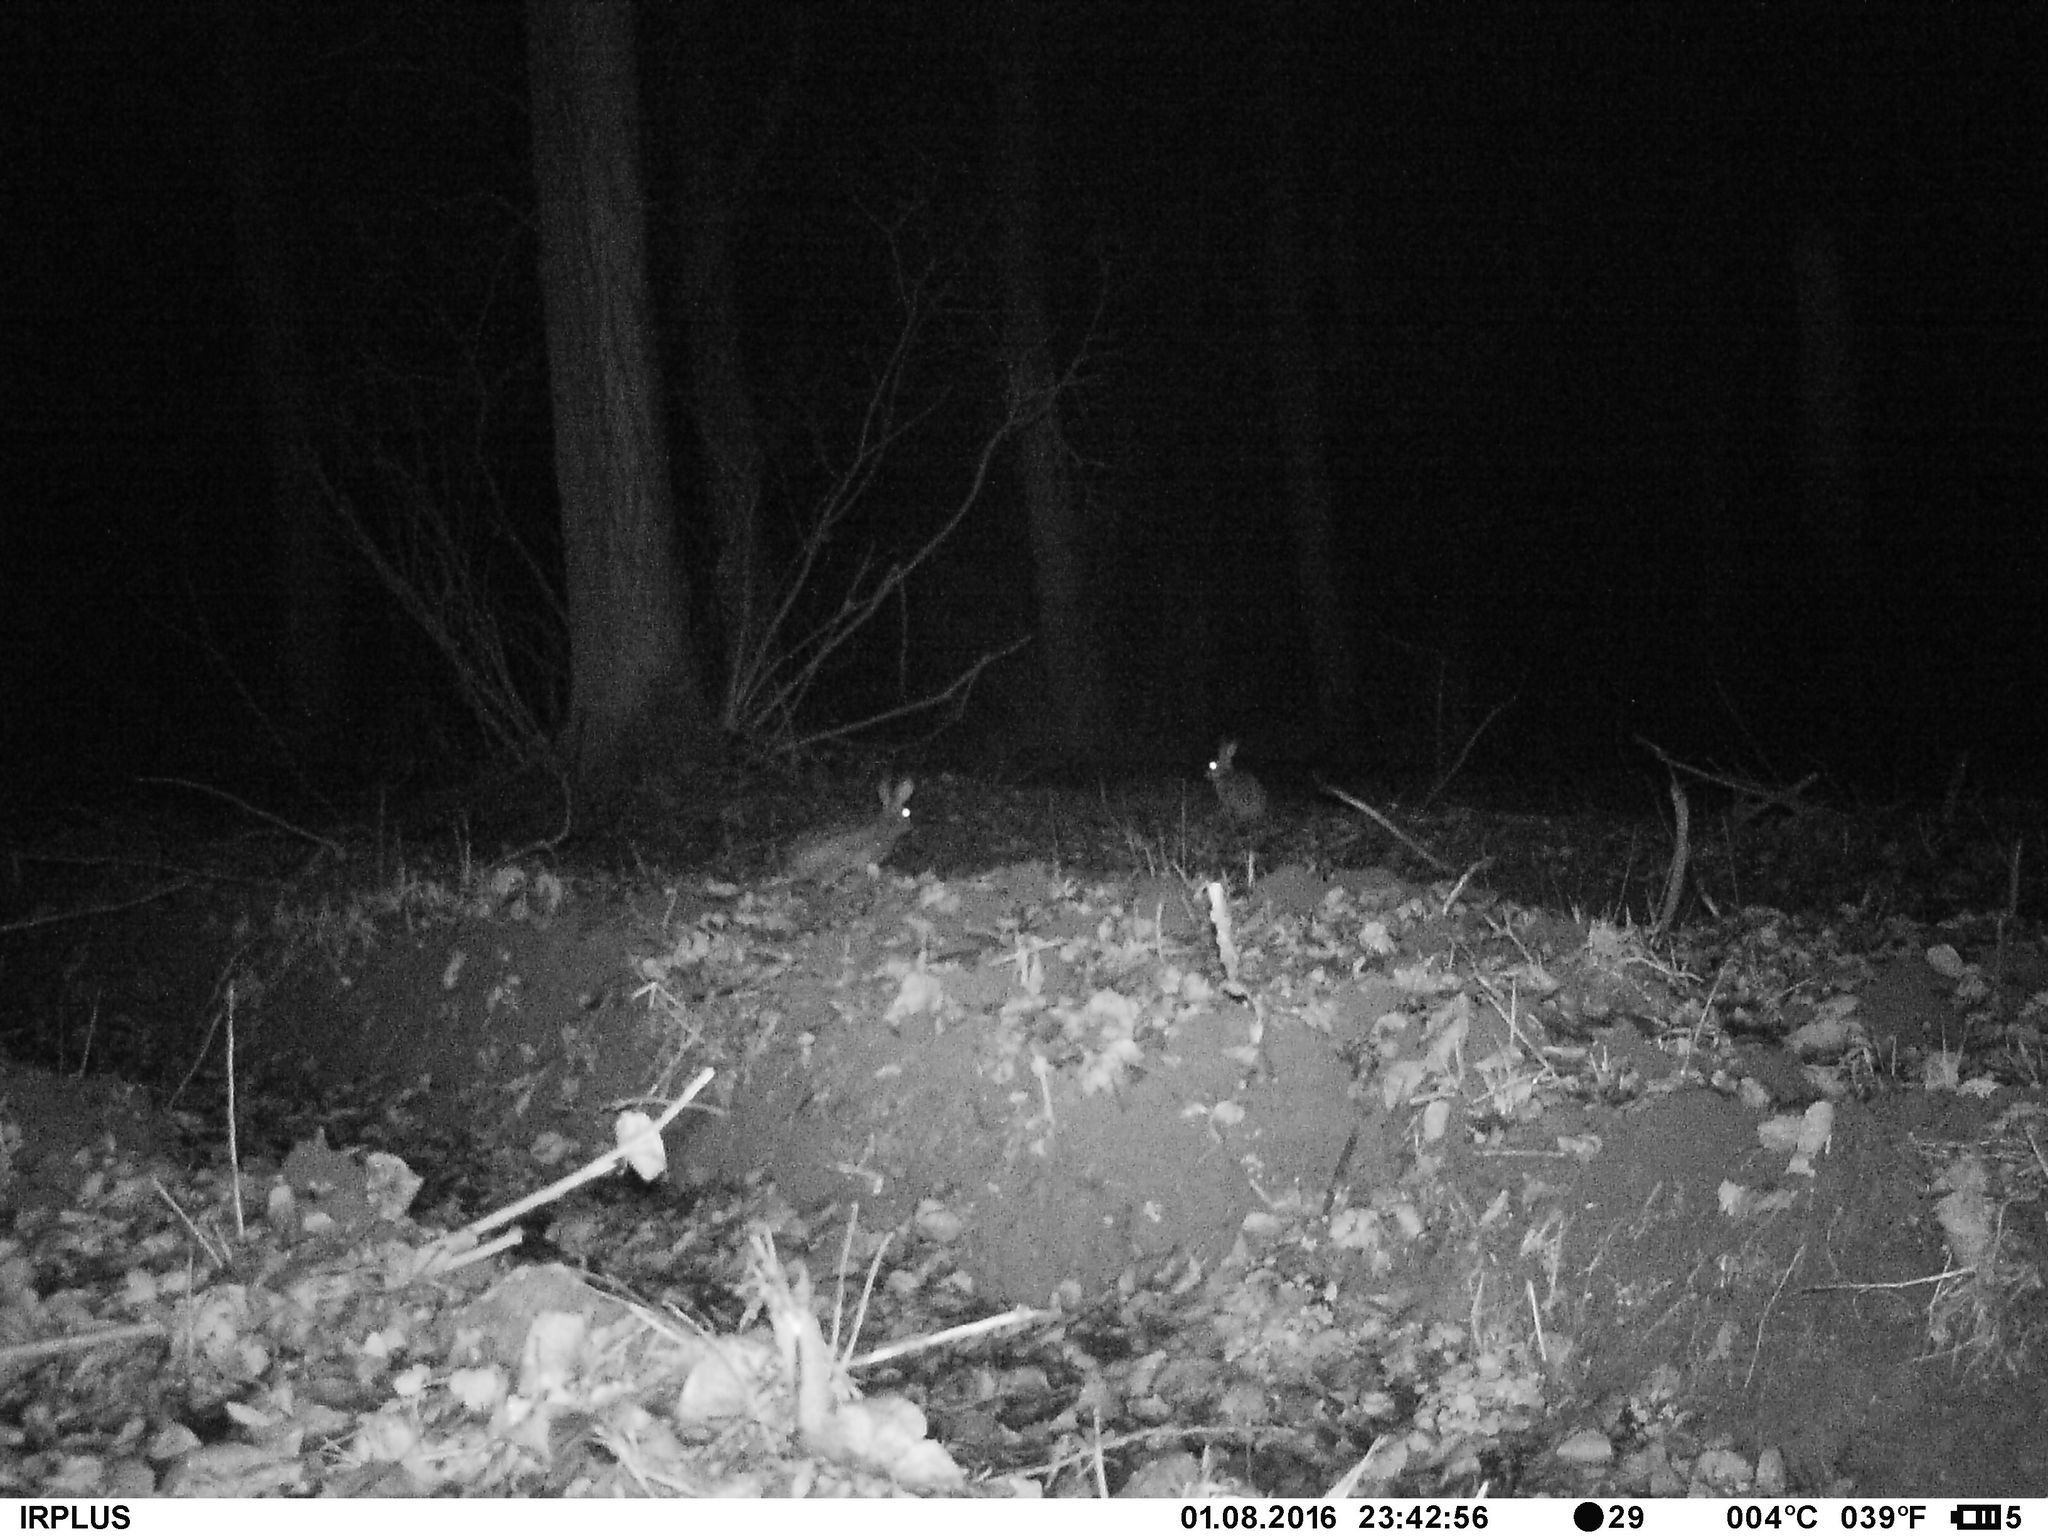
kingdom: Animalia
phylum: Chordata
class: Mammalia
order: Lagomorpha
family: Leporidae
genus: Lepus
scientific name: Lepus europaeus
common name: European hare
